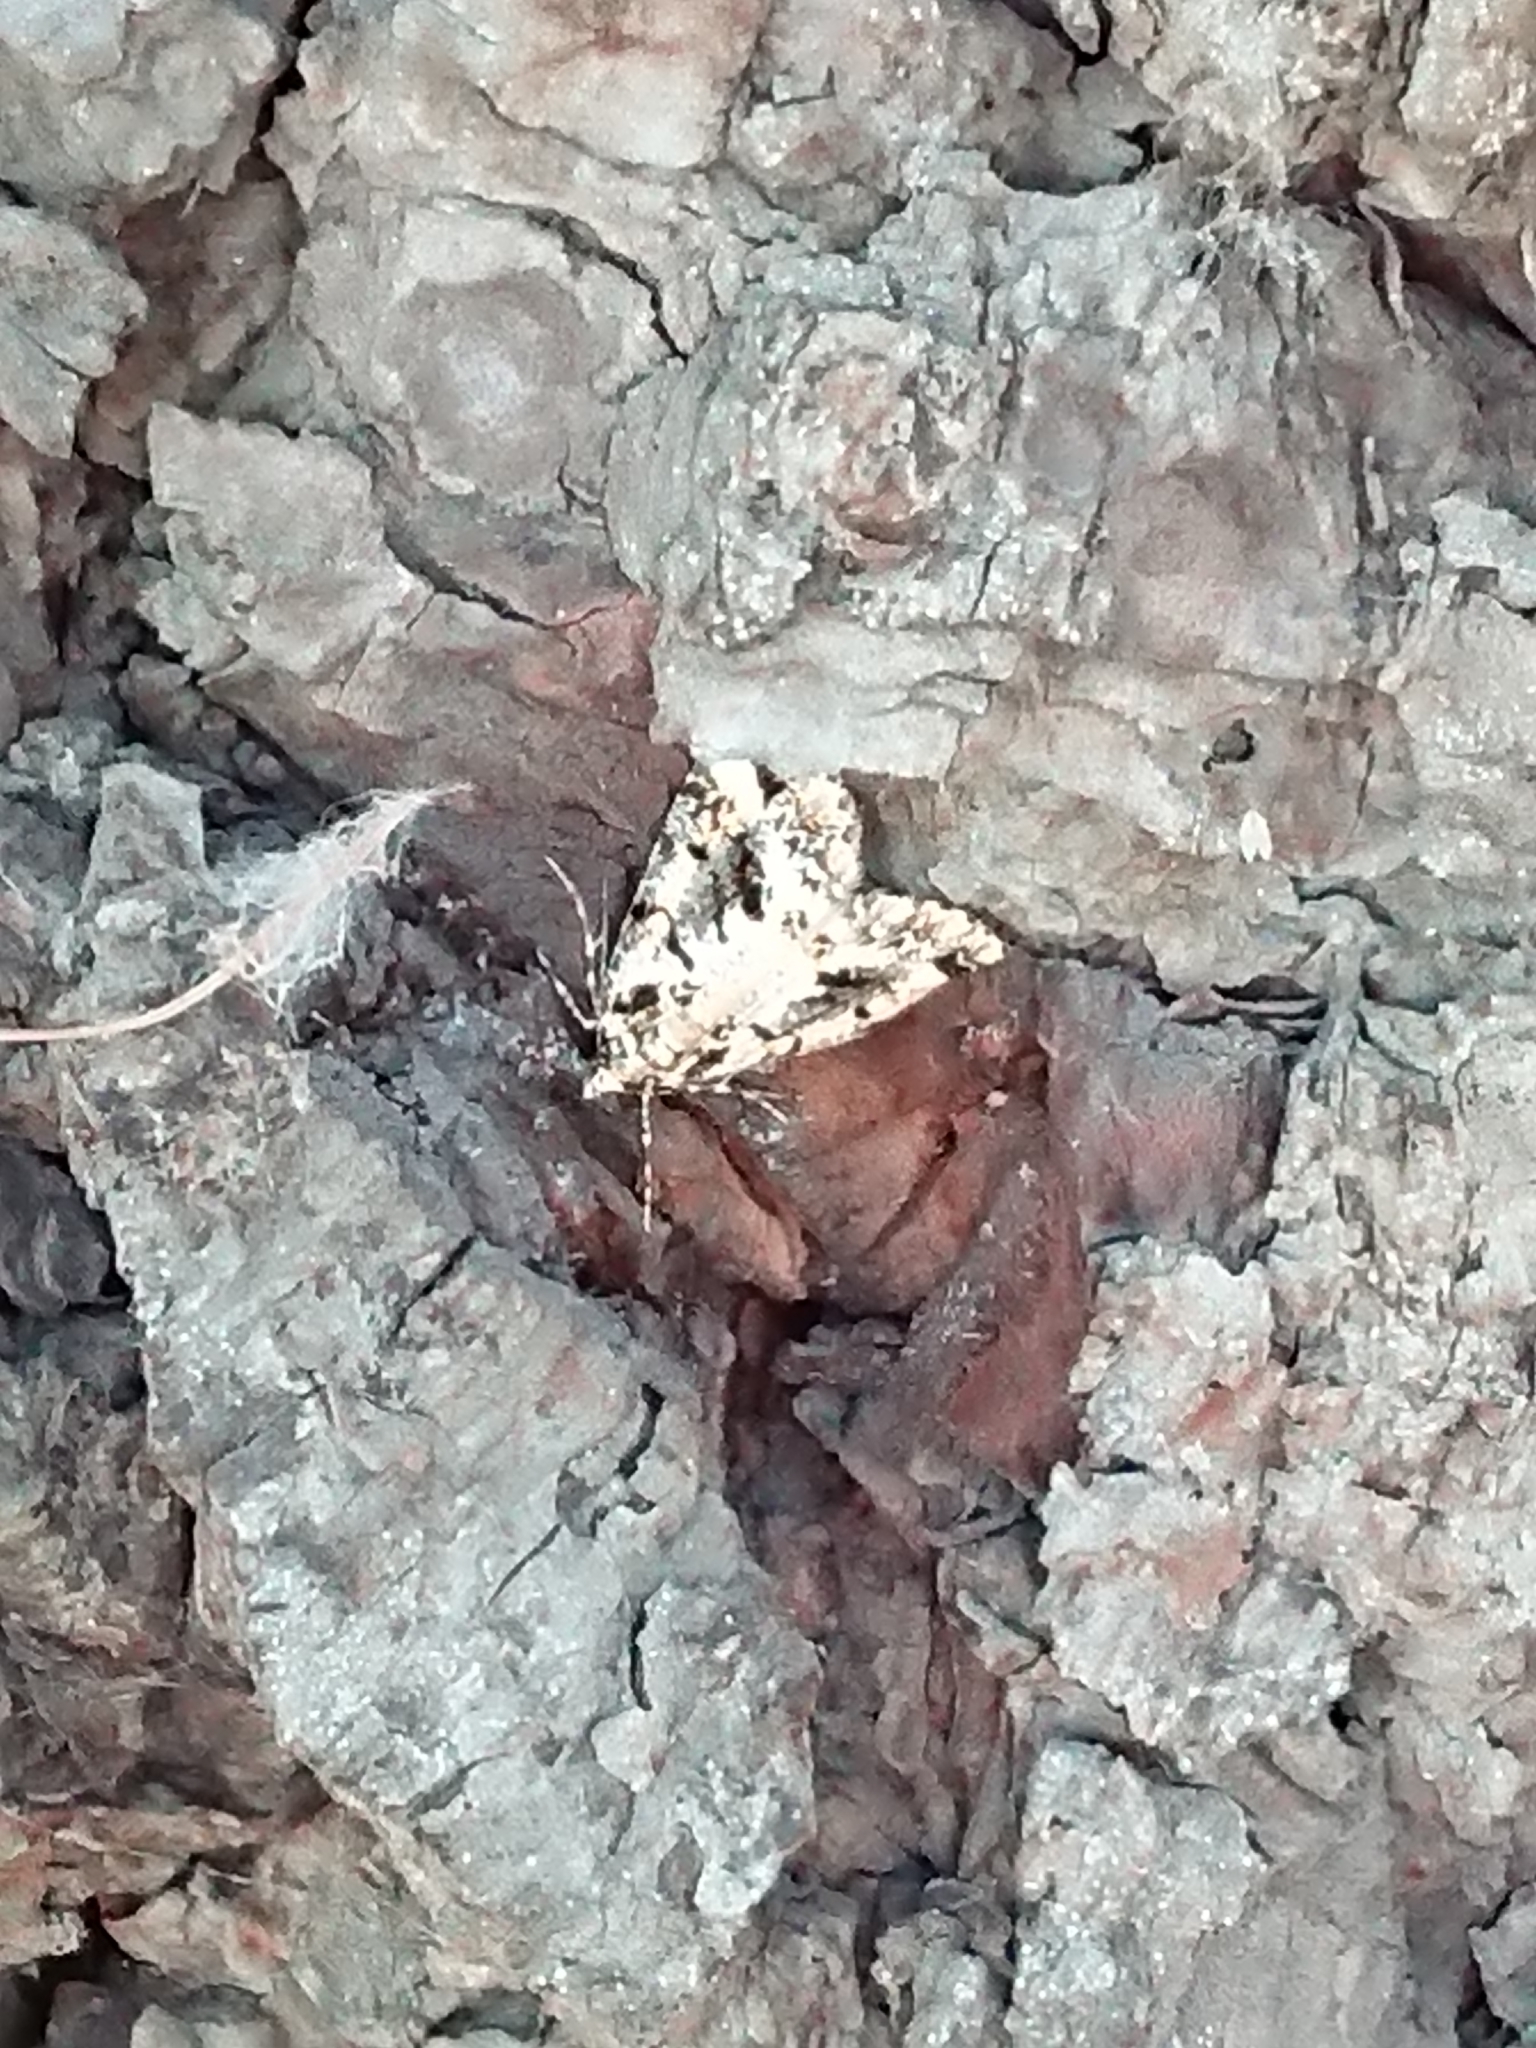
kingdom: Animalia
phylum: Arthropoda
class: Insecta
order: Lepidoptera
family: Geometridae
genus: Pseudocoremia
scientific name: Pseudocoremia leucelaea
